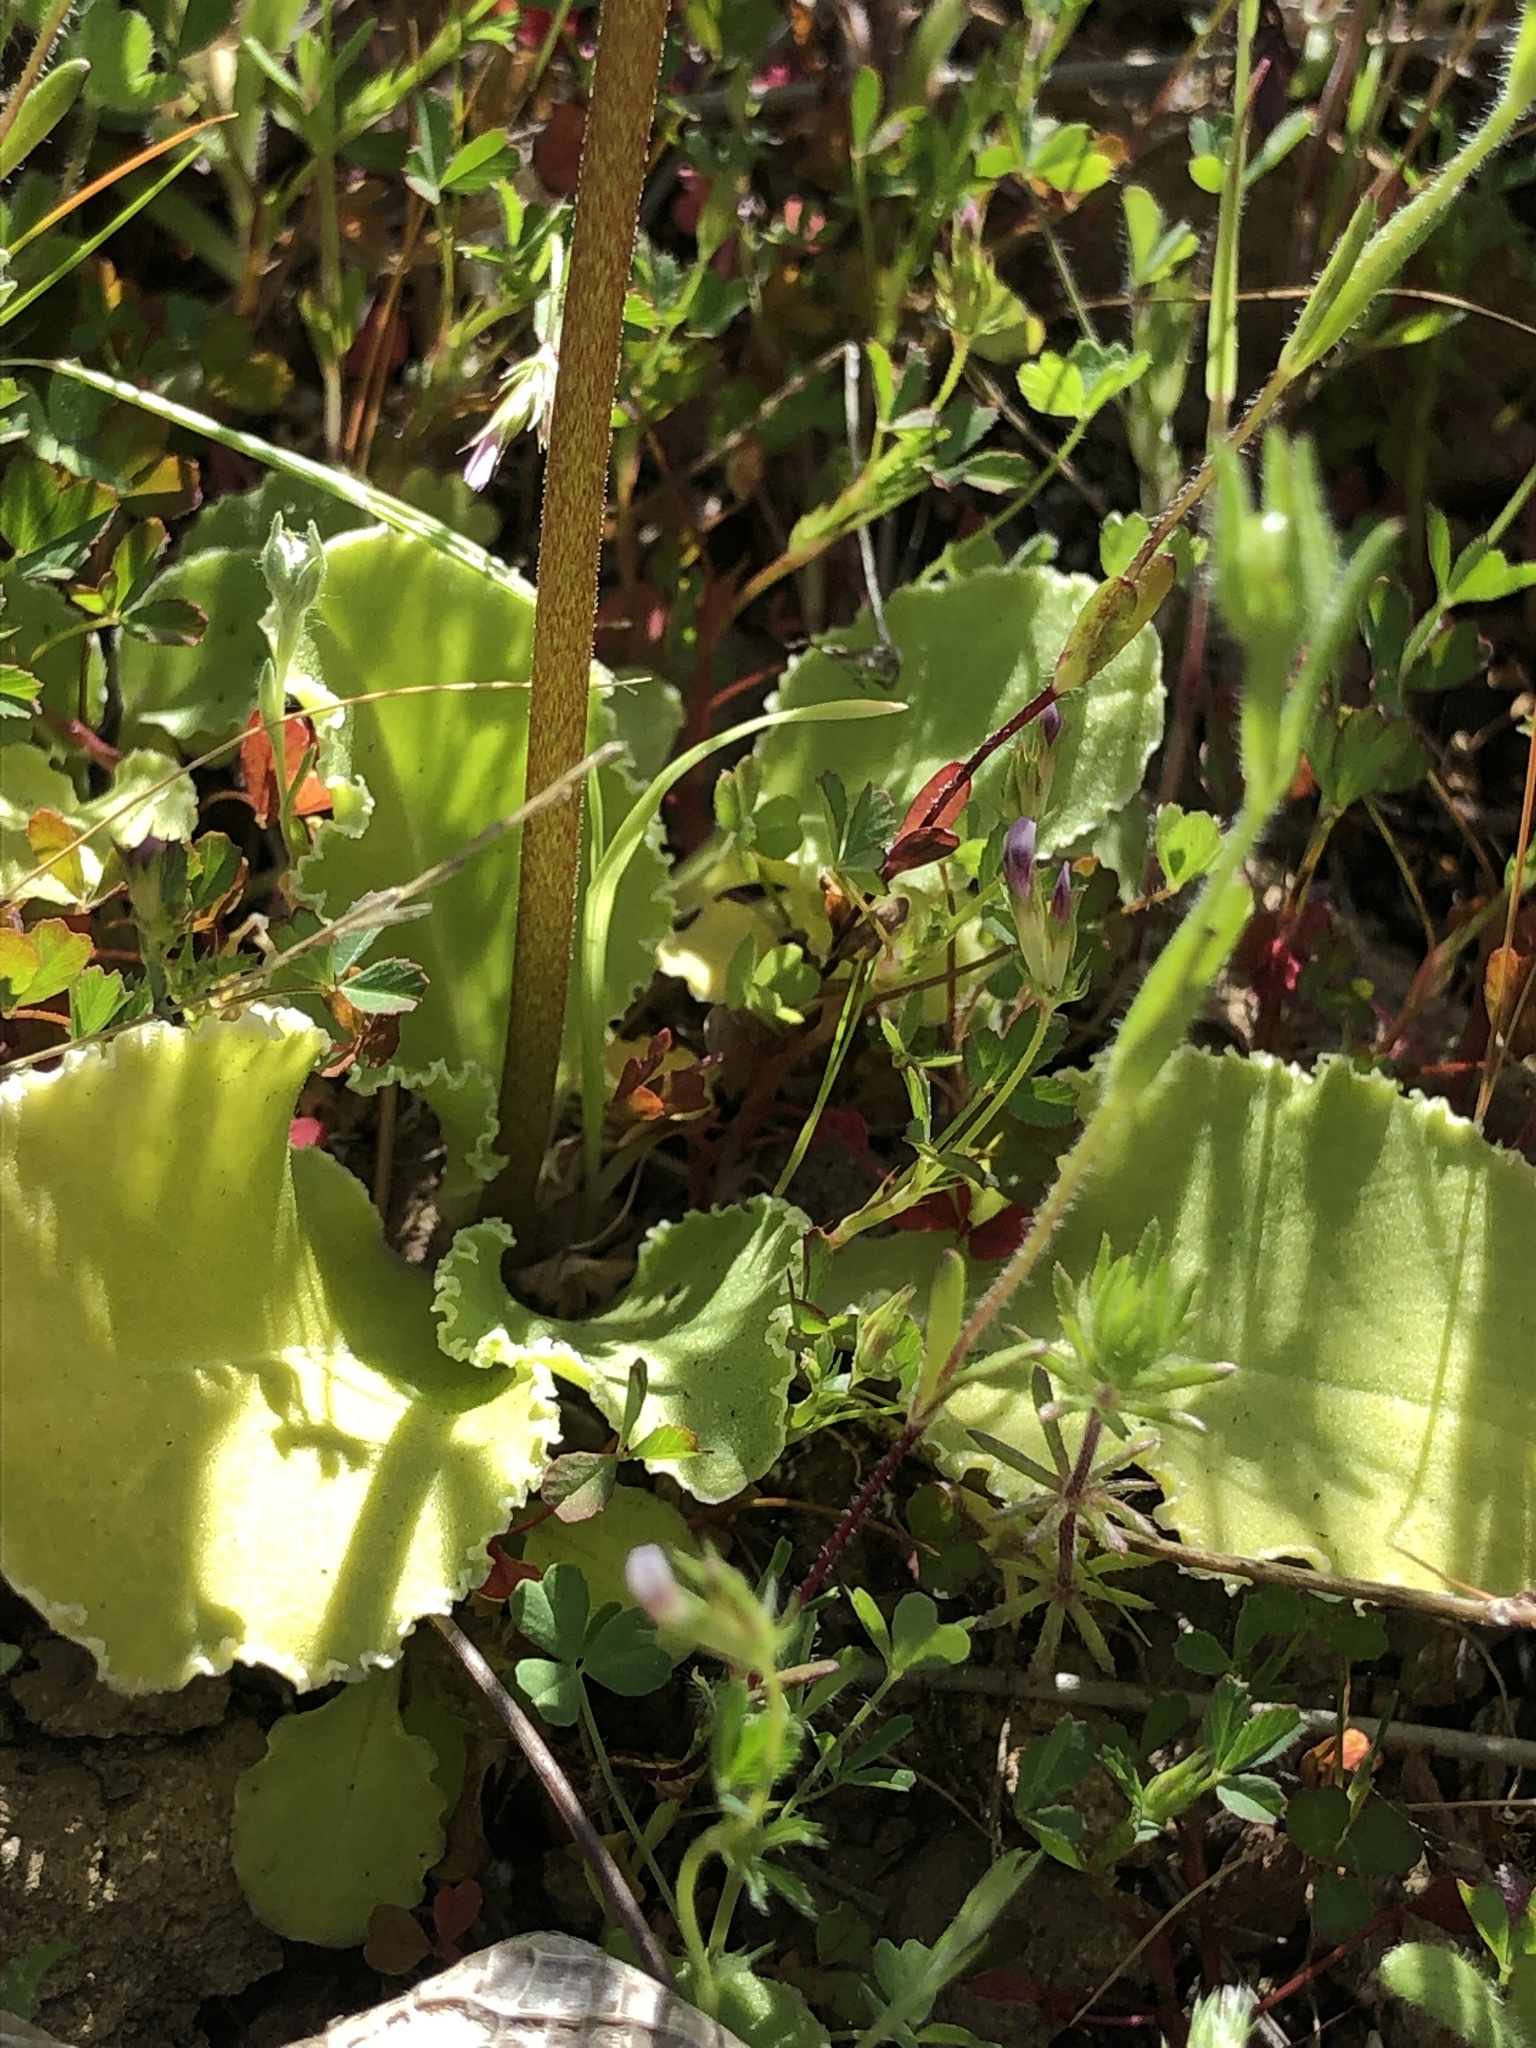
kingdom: Plantae
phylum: Tracheophyta
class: Magnoliopsida
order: Ericales
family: Primulaceae
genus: Dodecatheon
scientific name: Dodecatheon hendersonii
